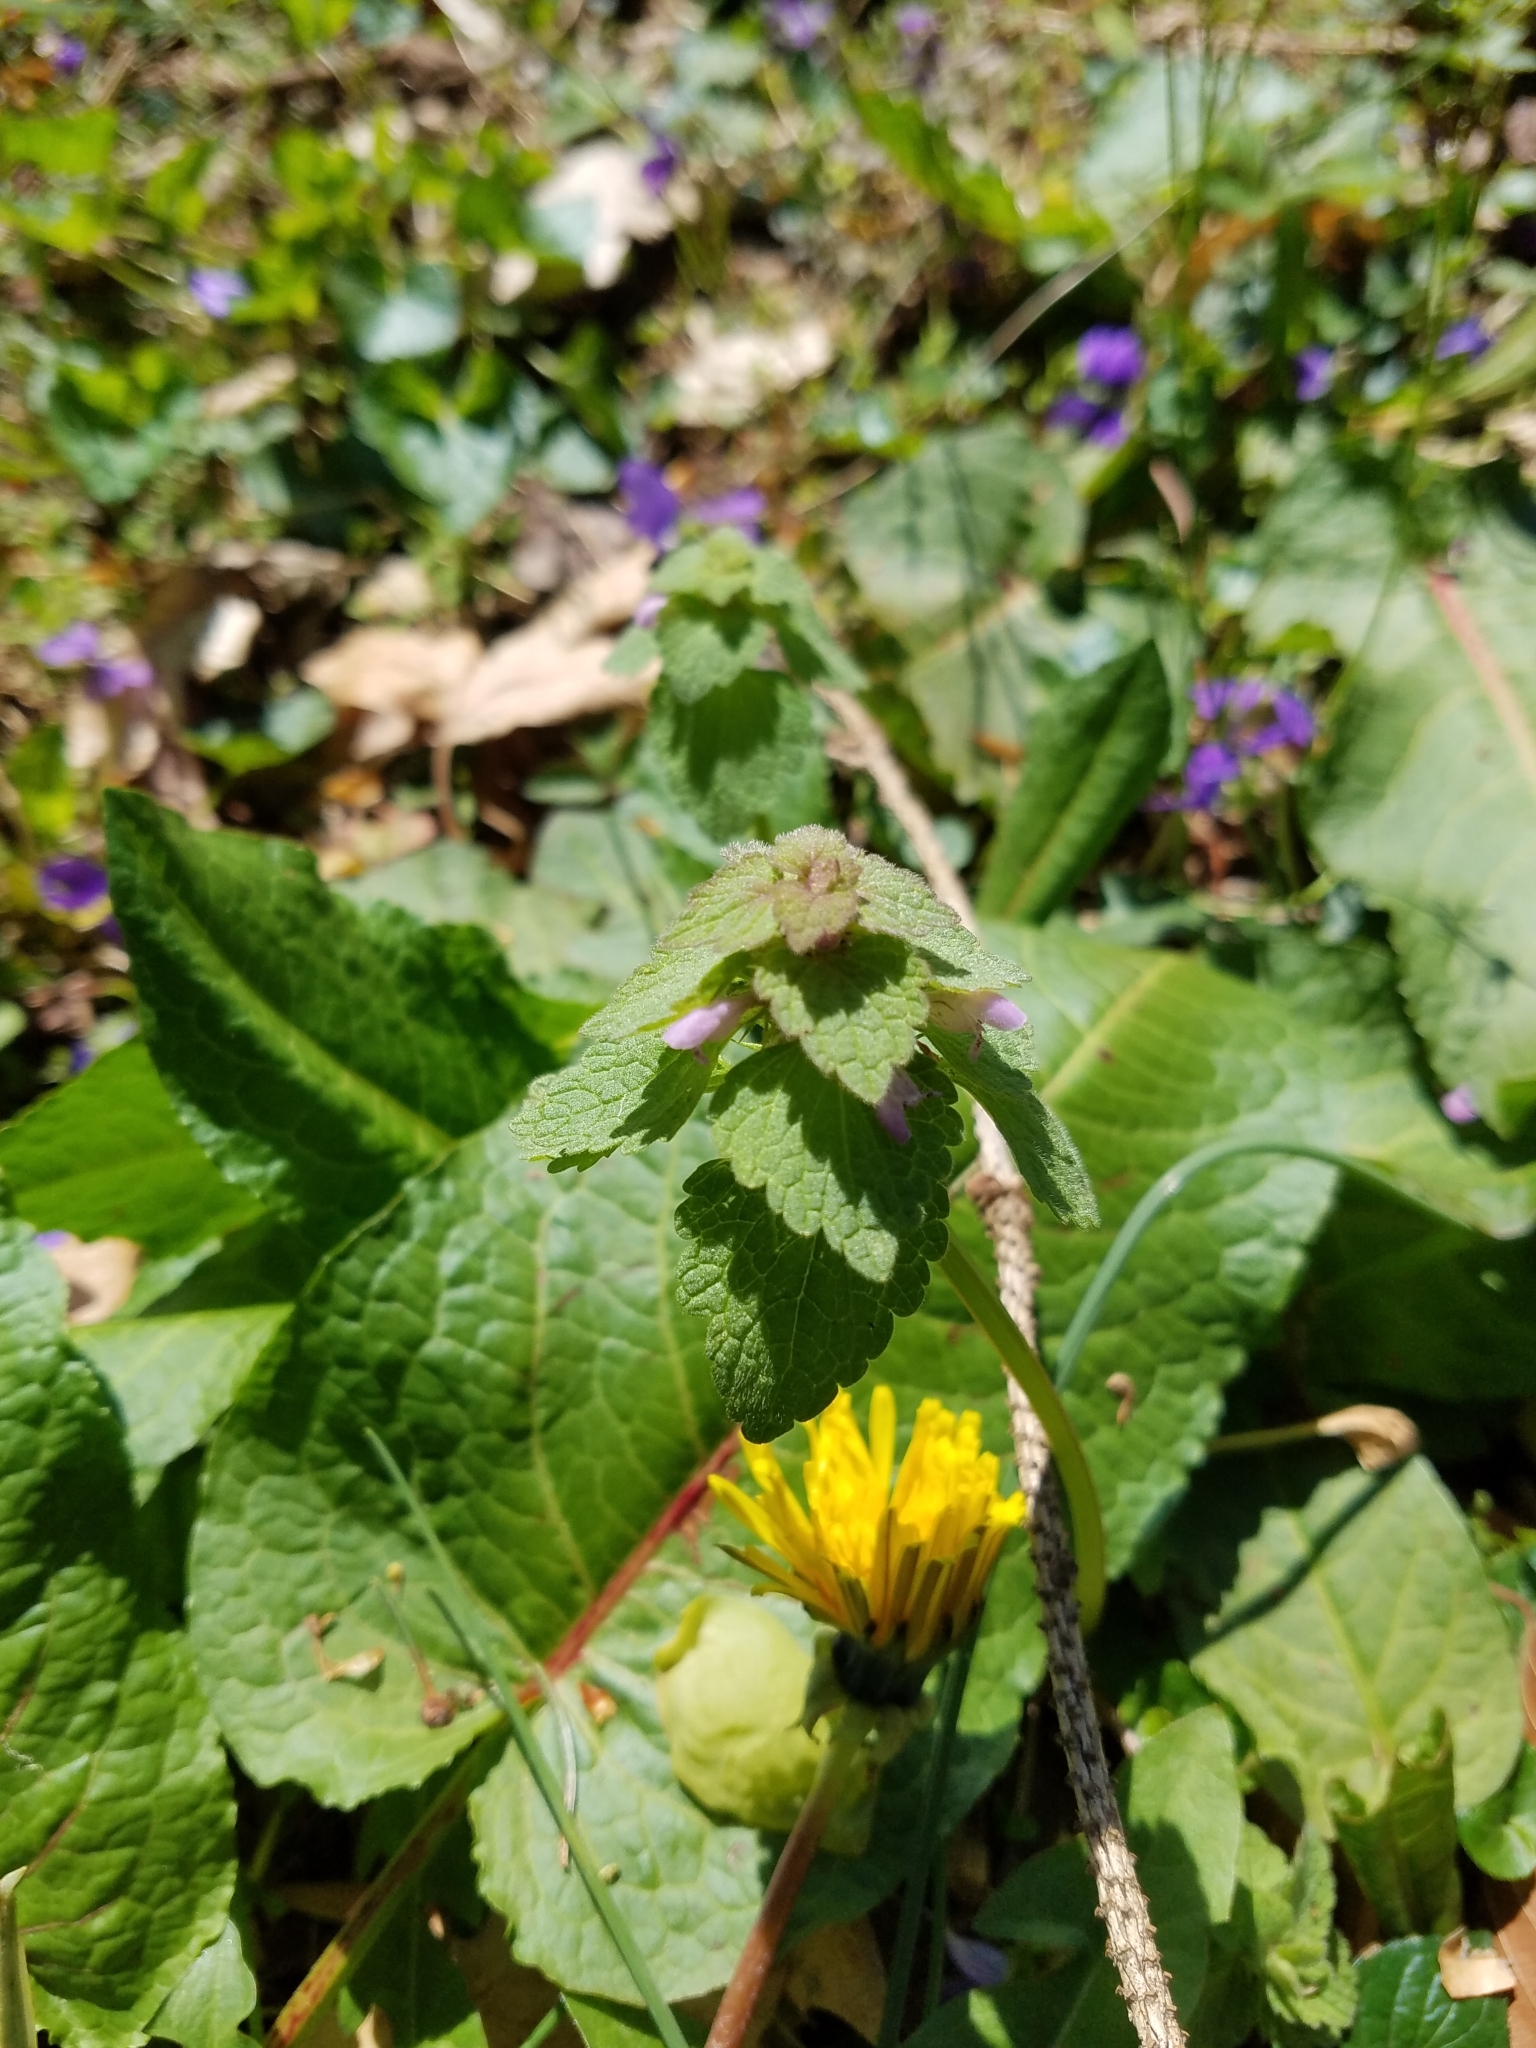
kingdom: Plantae
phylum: Tracheophyta
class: Magnoliopsida
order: Lamiales
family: Lamiaceae
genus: Lamium
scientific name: Lamium purpureum
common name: Red dead-nettle
